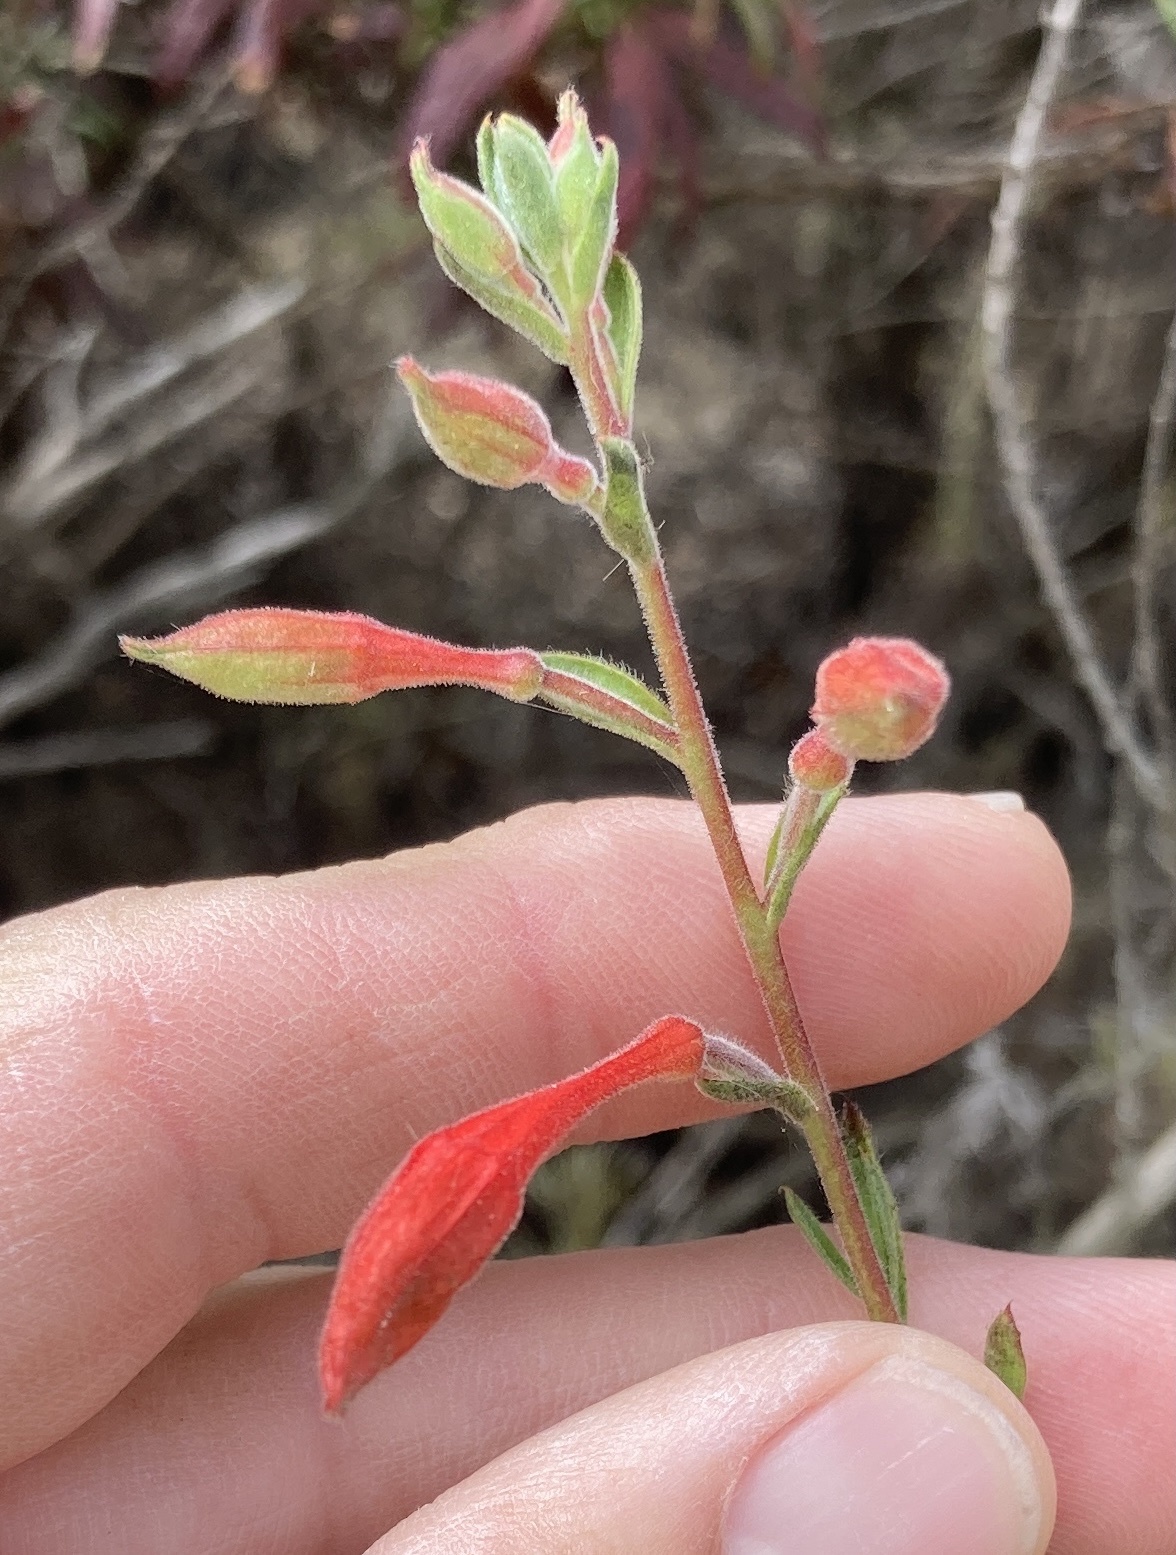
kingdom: Plantae
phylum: Tracheophyta
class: Magnoliopsida
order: Myrtales
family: Onagraceae
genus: Epilobium
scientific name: Epilobium canum
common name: California-fuchsia
